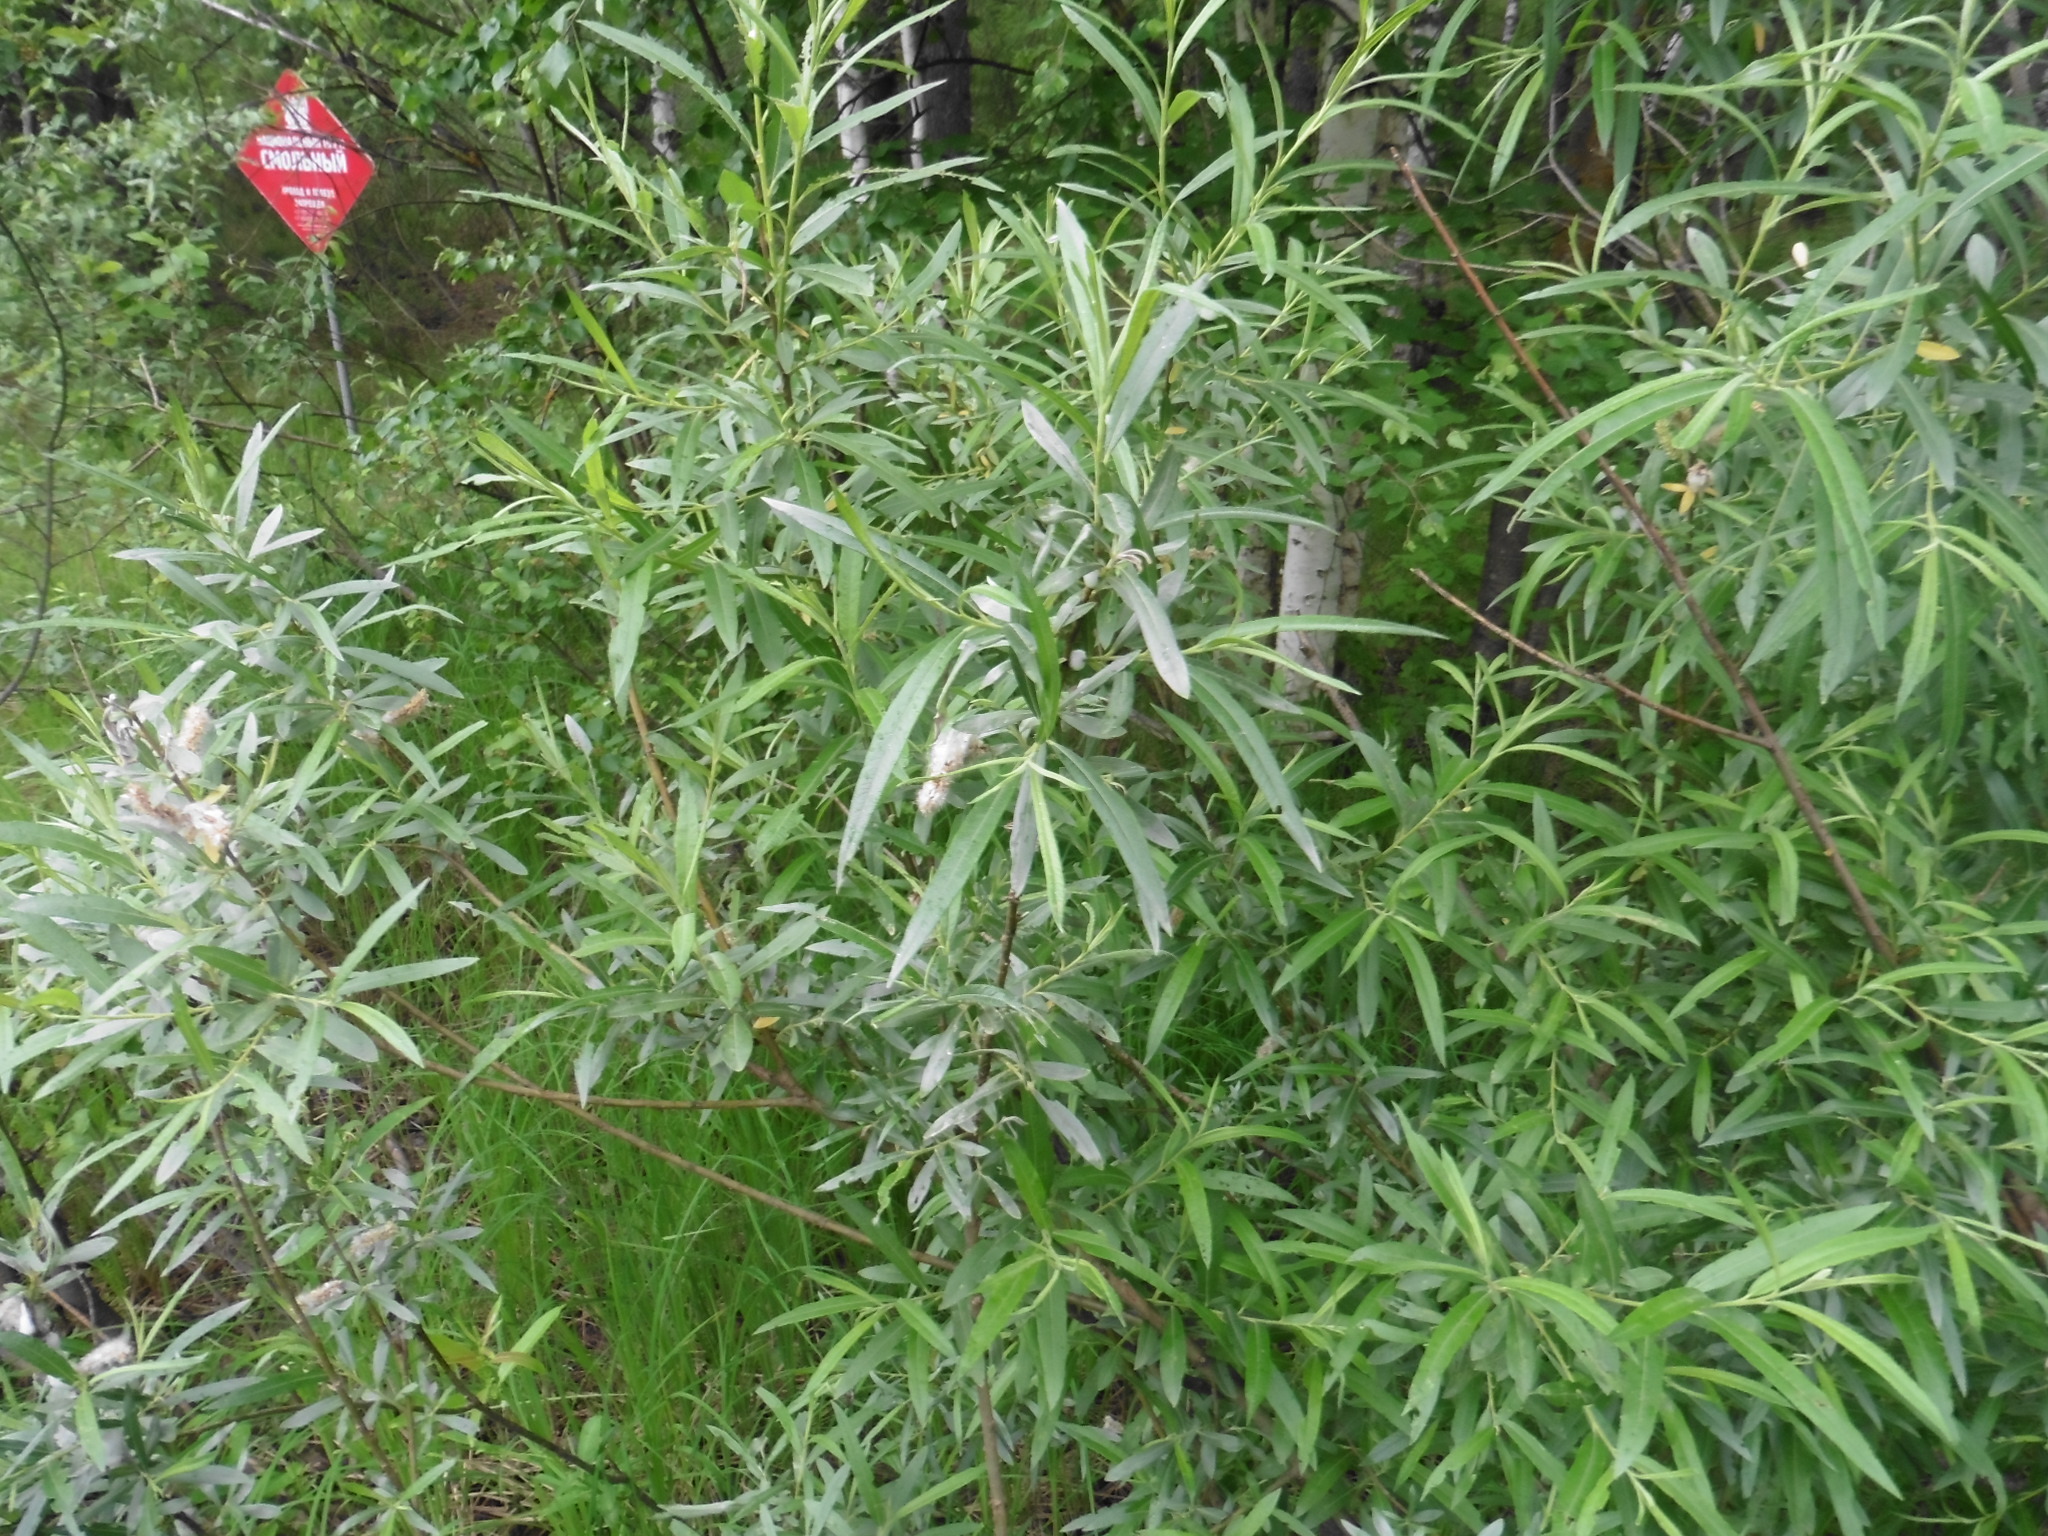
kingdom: Plantae
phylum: Tracheophyta
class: Magnoliopsida
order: Malpighiales
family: Salicaceae
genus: Salix
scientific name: Salix viminalis
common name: Osier
